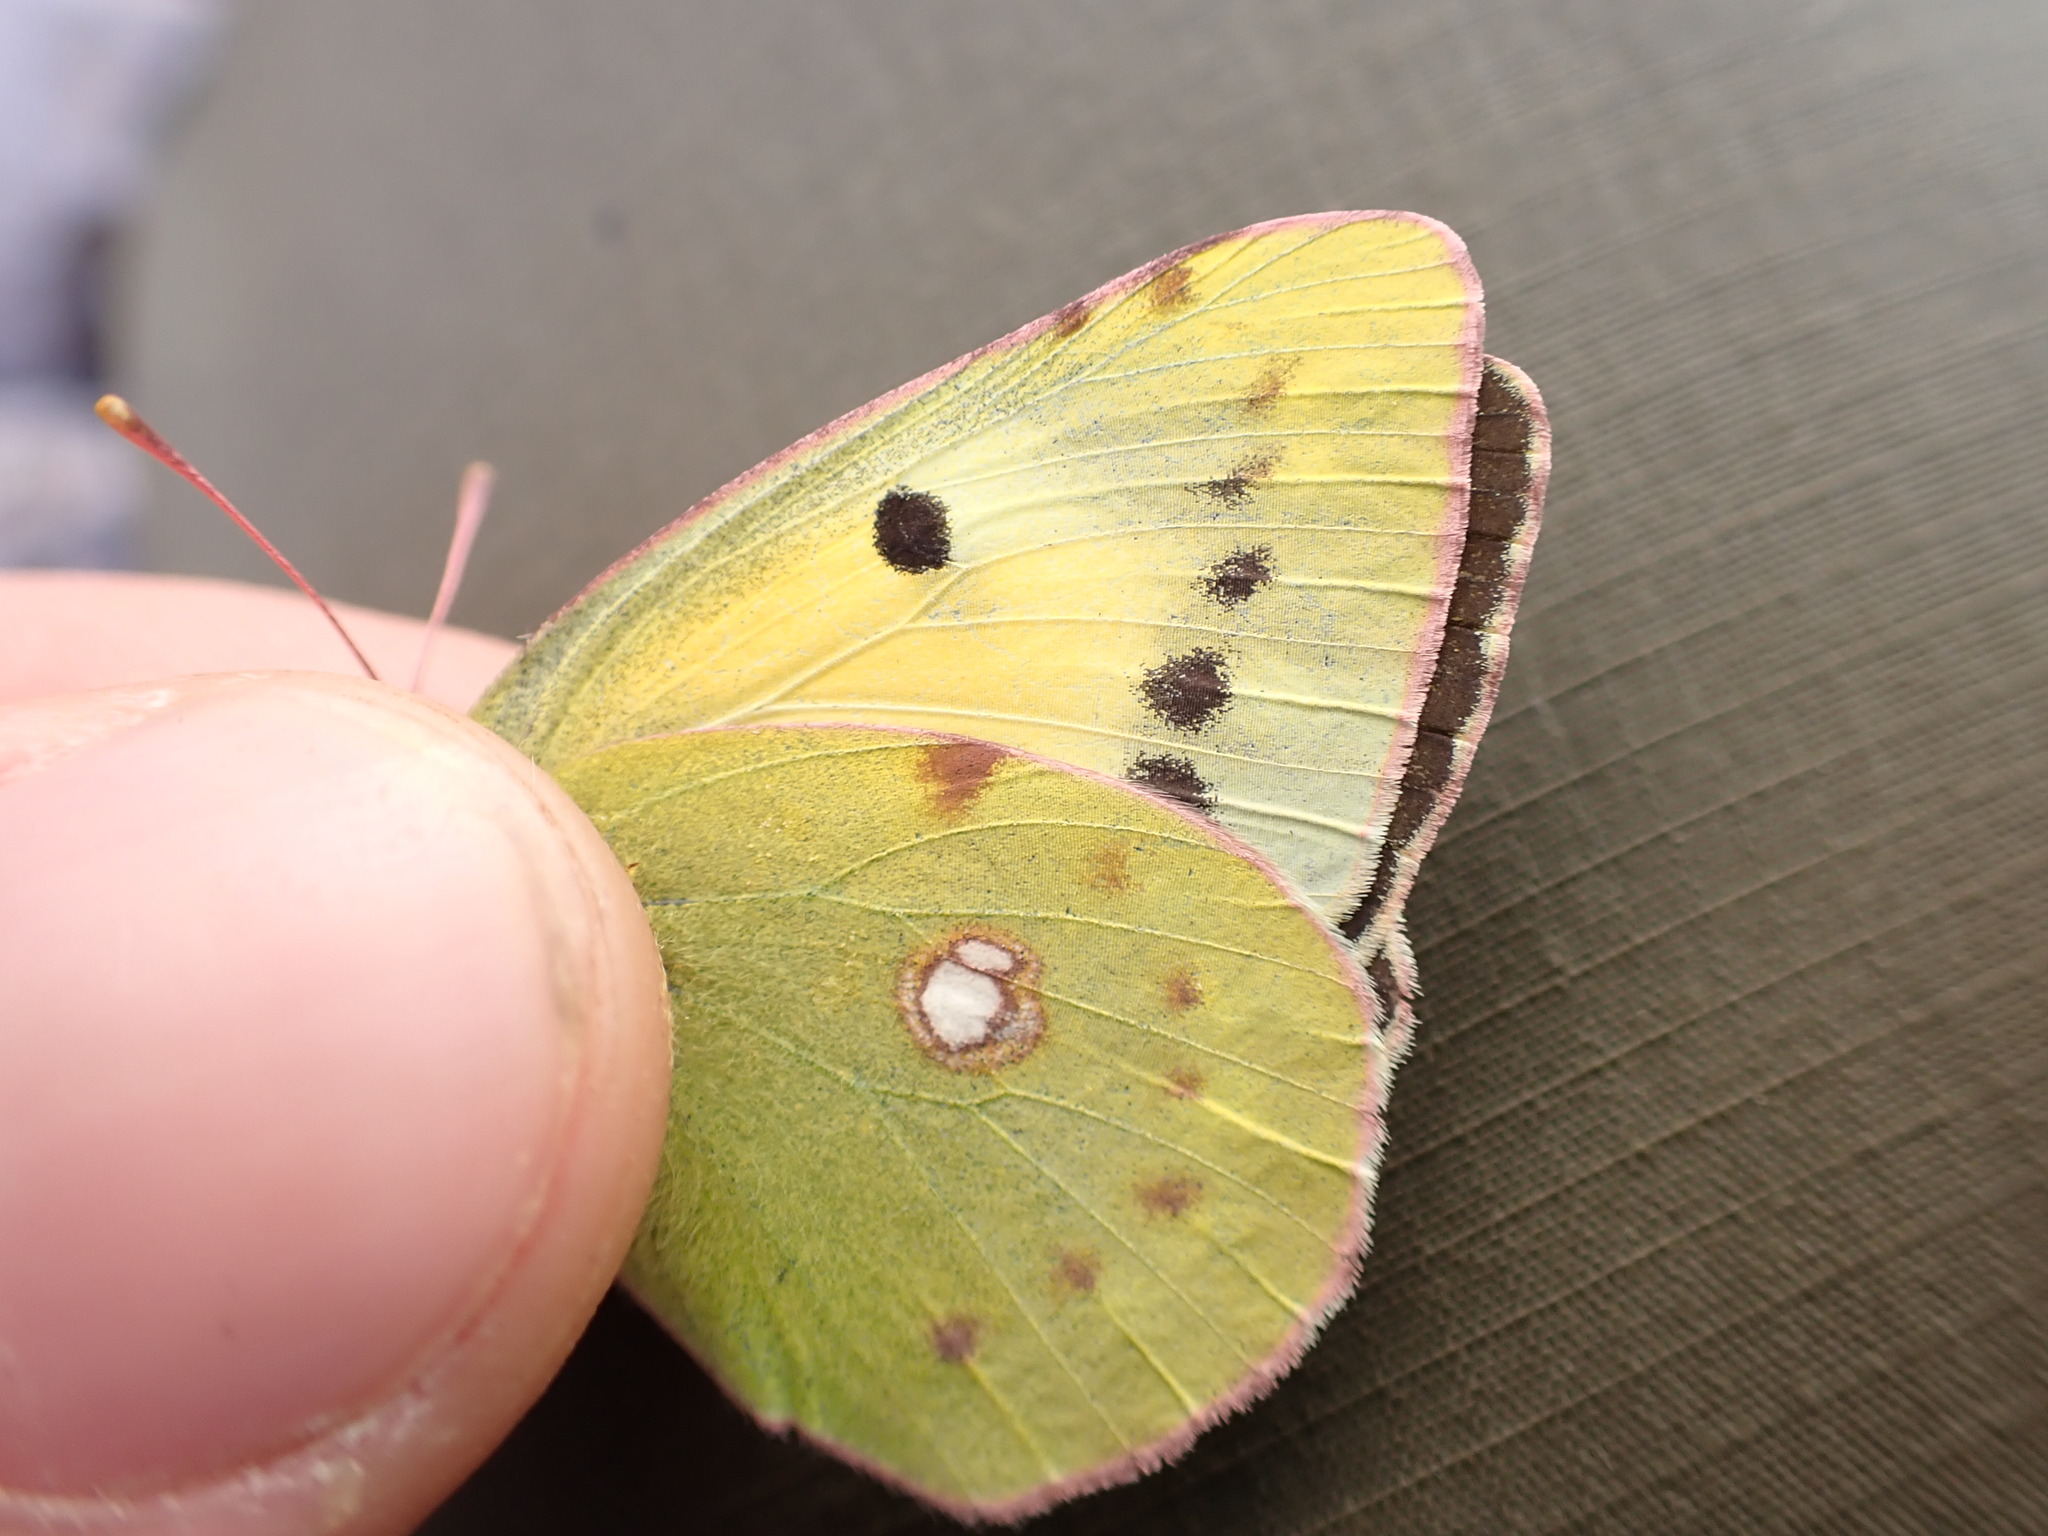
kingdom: Animalia
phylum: Arthropoda
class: Insecta
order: Lepidoptera
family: Pieridae
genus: Colias
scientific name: Colias alfacariensis
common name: Berger's clouded yellow
